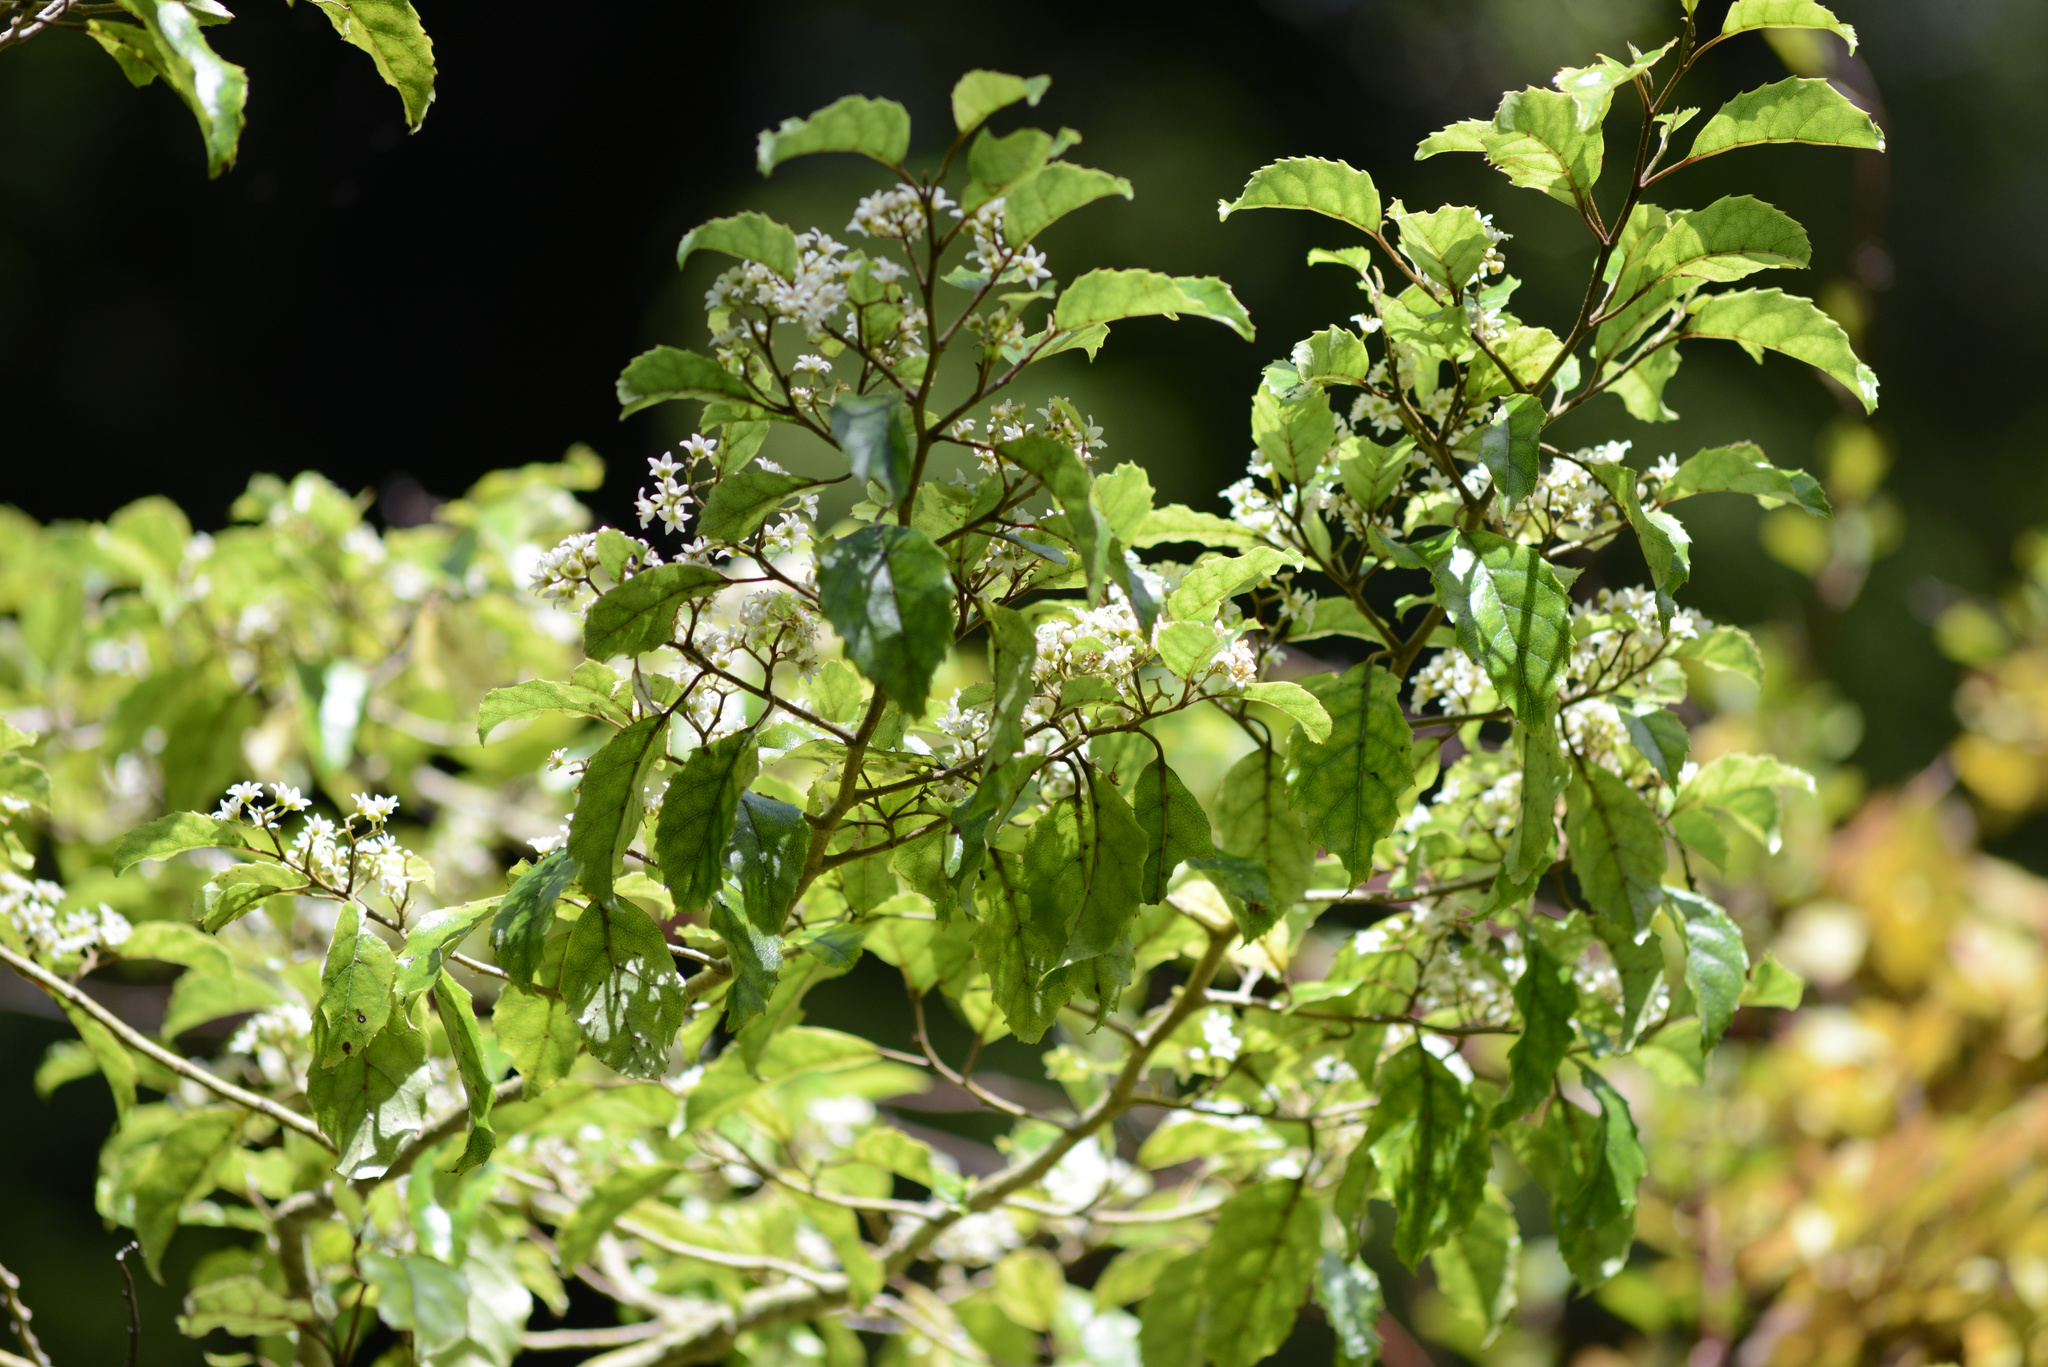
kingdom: Plantae
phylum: Tracheophyta
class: Magnoliopsida
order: Asterales
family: Rousseaceae
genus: Carpodetus
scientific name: Carpodetus serratus
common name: White mapau
